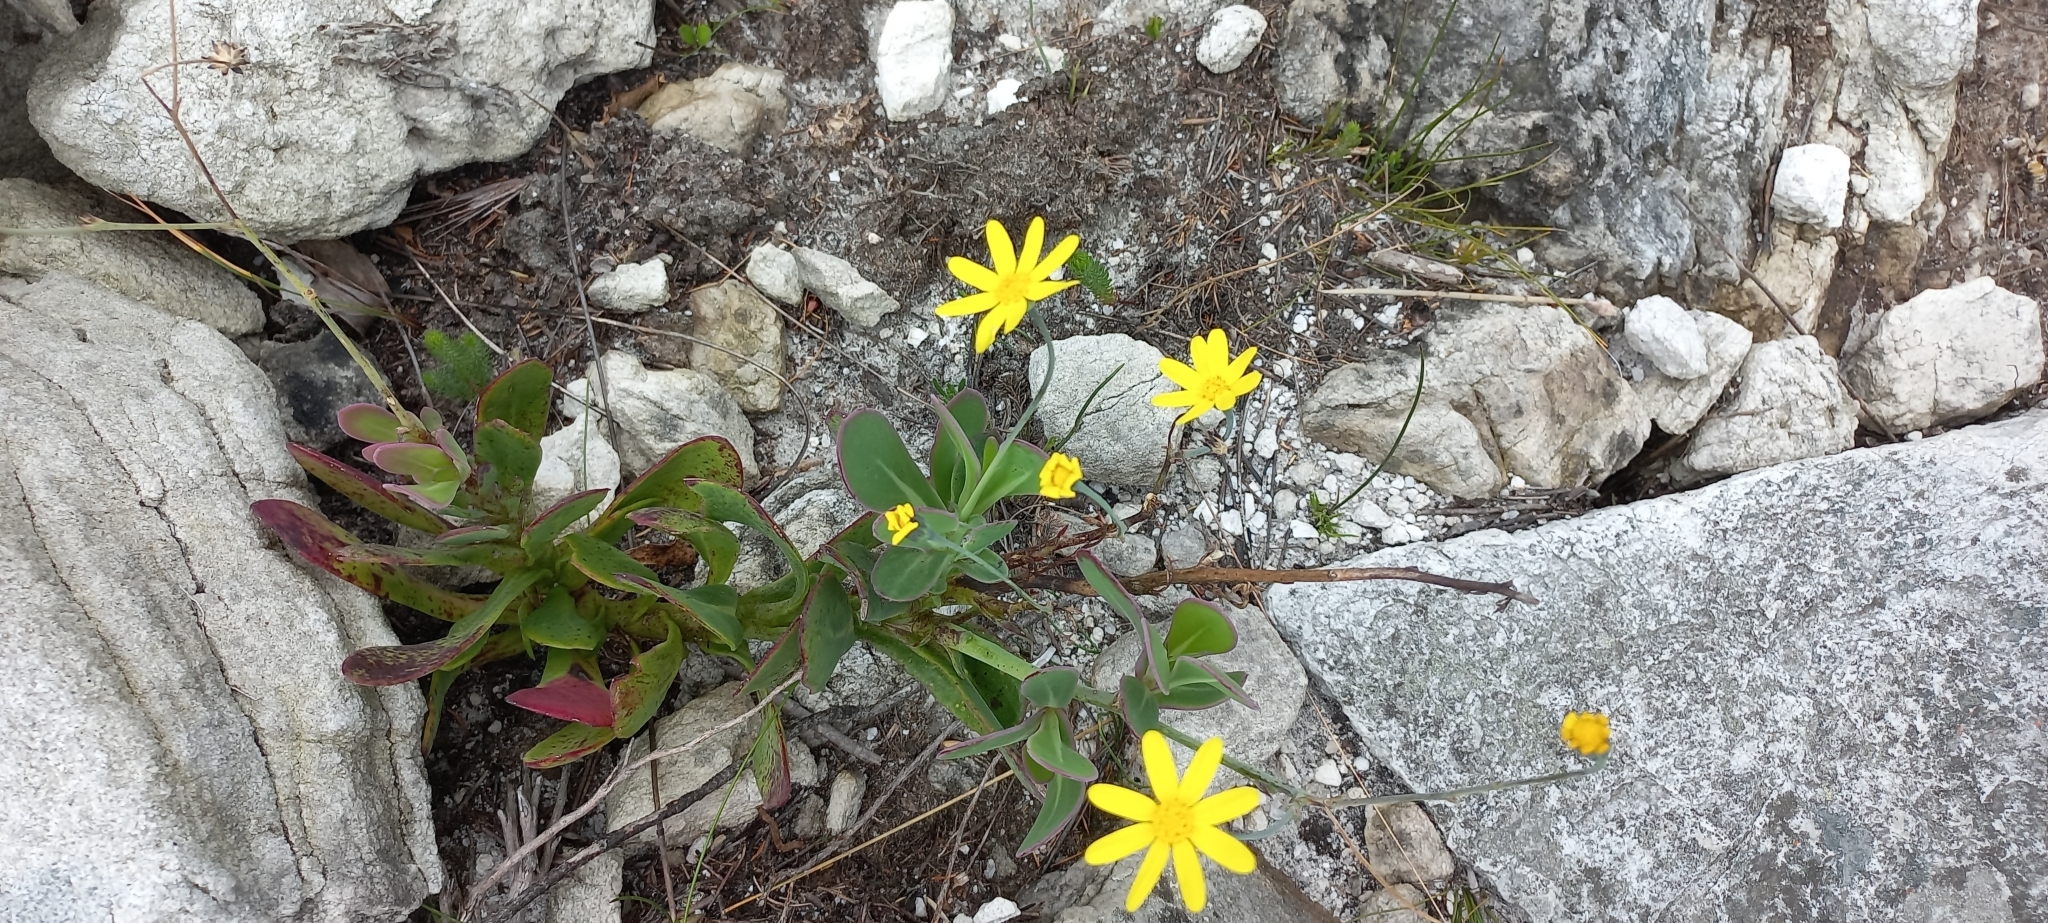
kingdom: Plantae
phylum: Tracheophyta
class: Magnoliopsida
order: Asterales
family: Asteraceae
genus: Othonna
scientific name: Othonna quinquedentata
